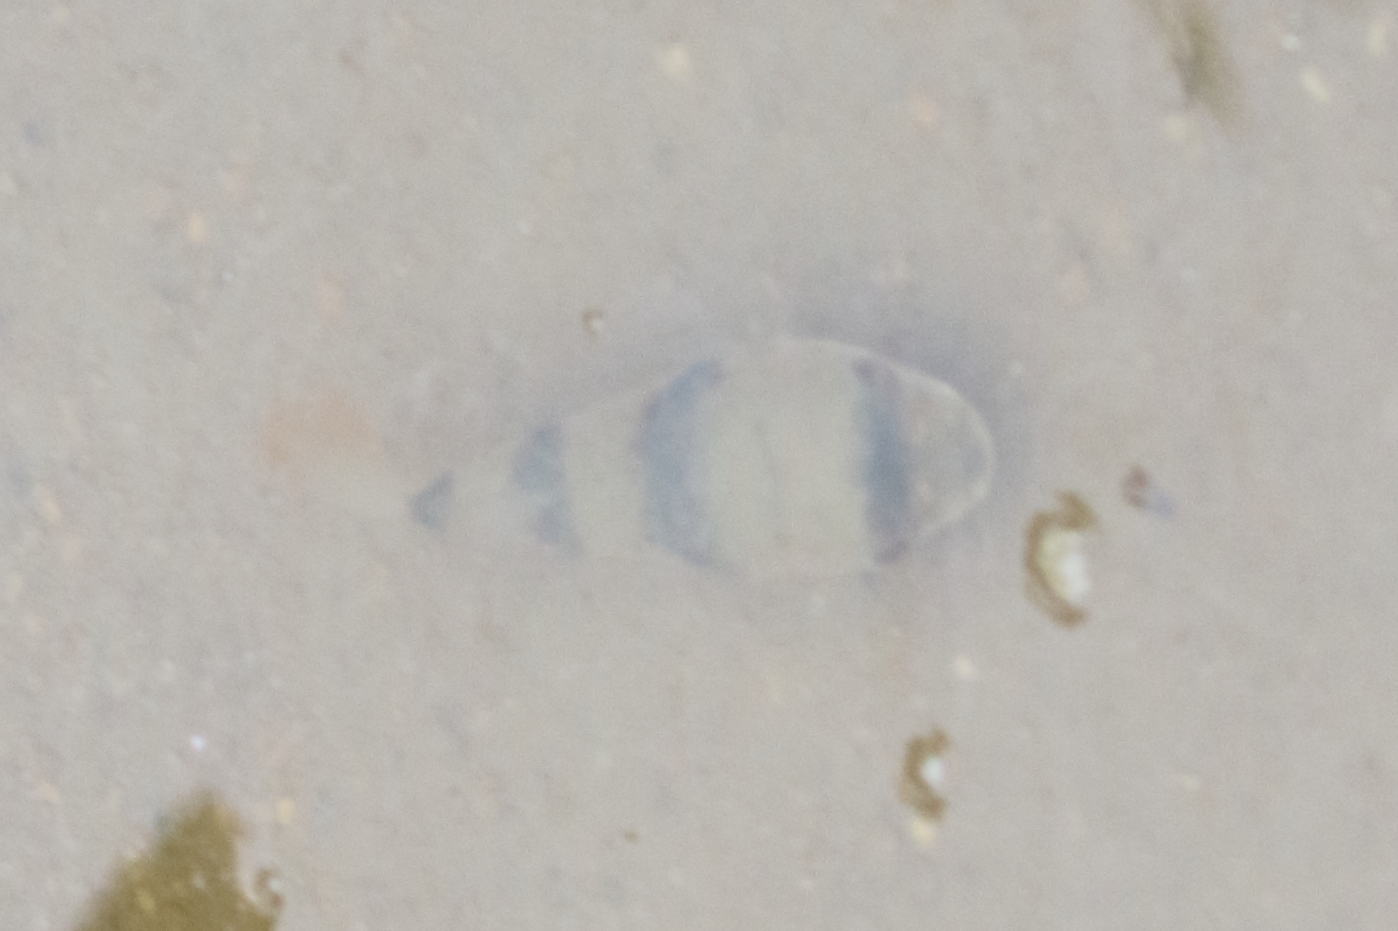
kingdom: Animalia
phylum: Chordata
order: Tetraodontiformes
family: Tetraodontidae
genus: Marilyna
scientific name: Marilyna pleurosticta
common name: Banded toadfish
